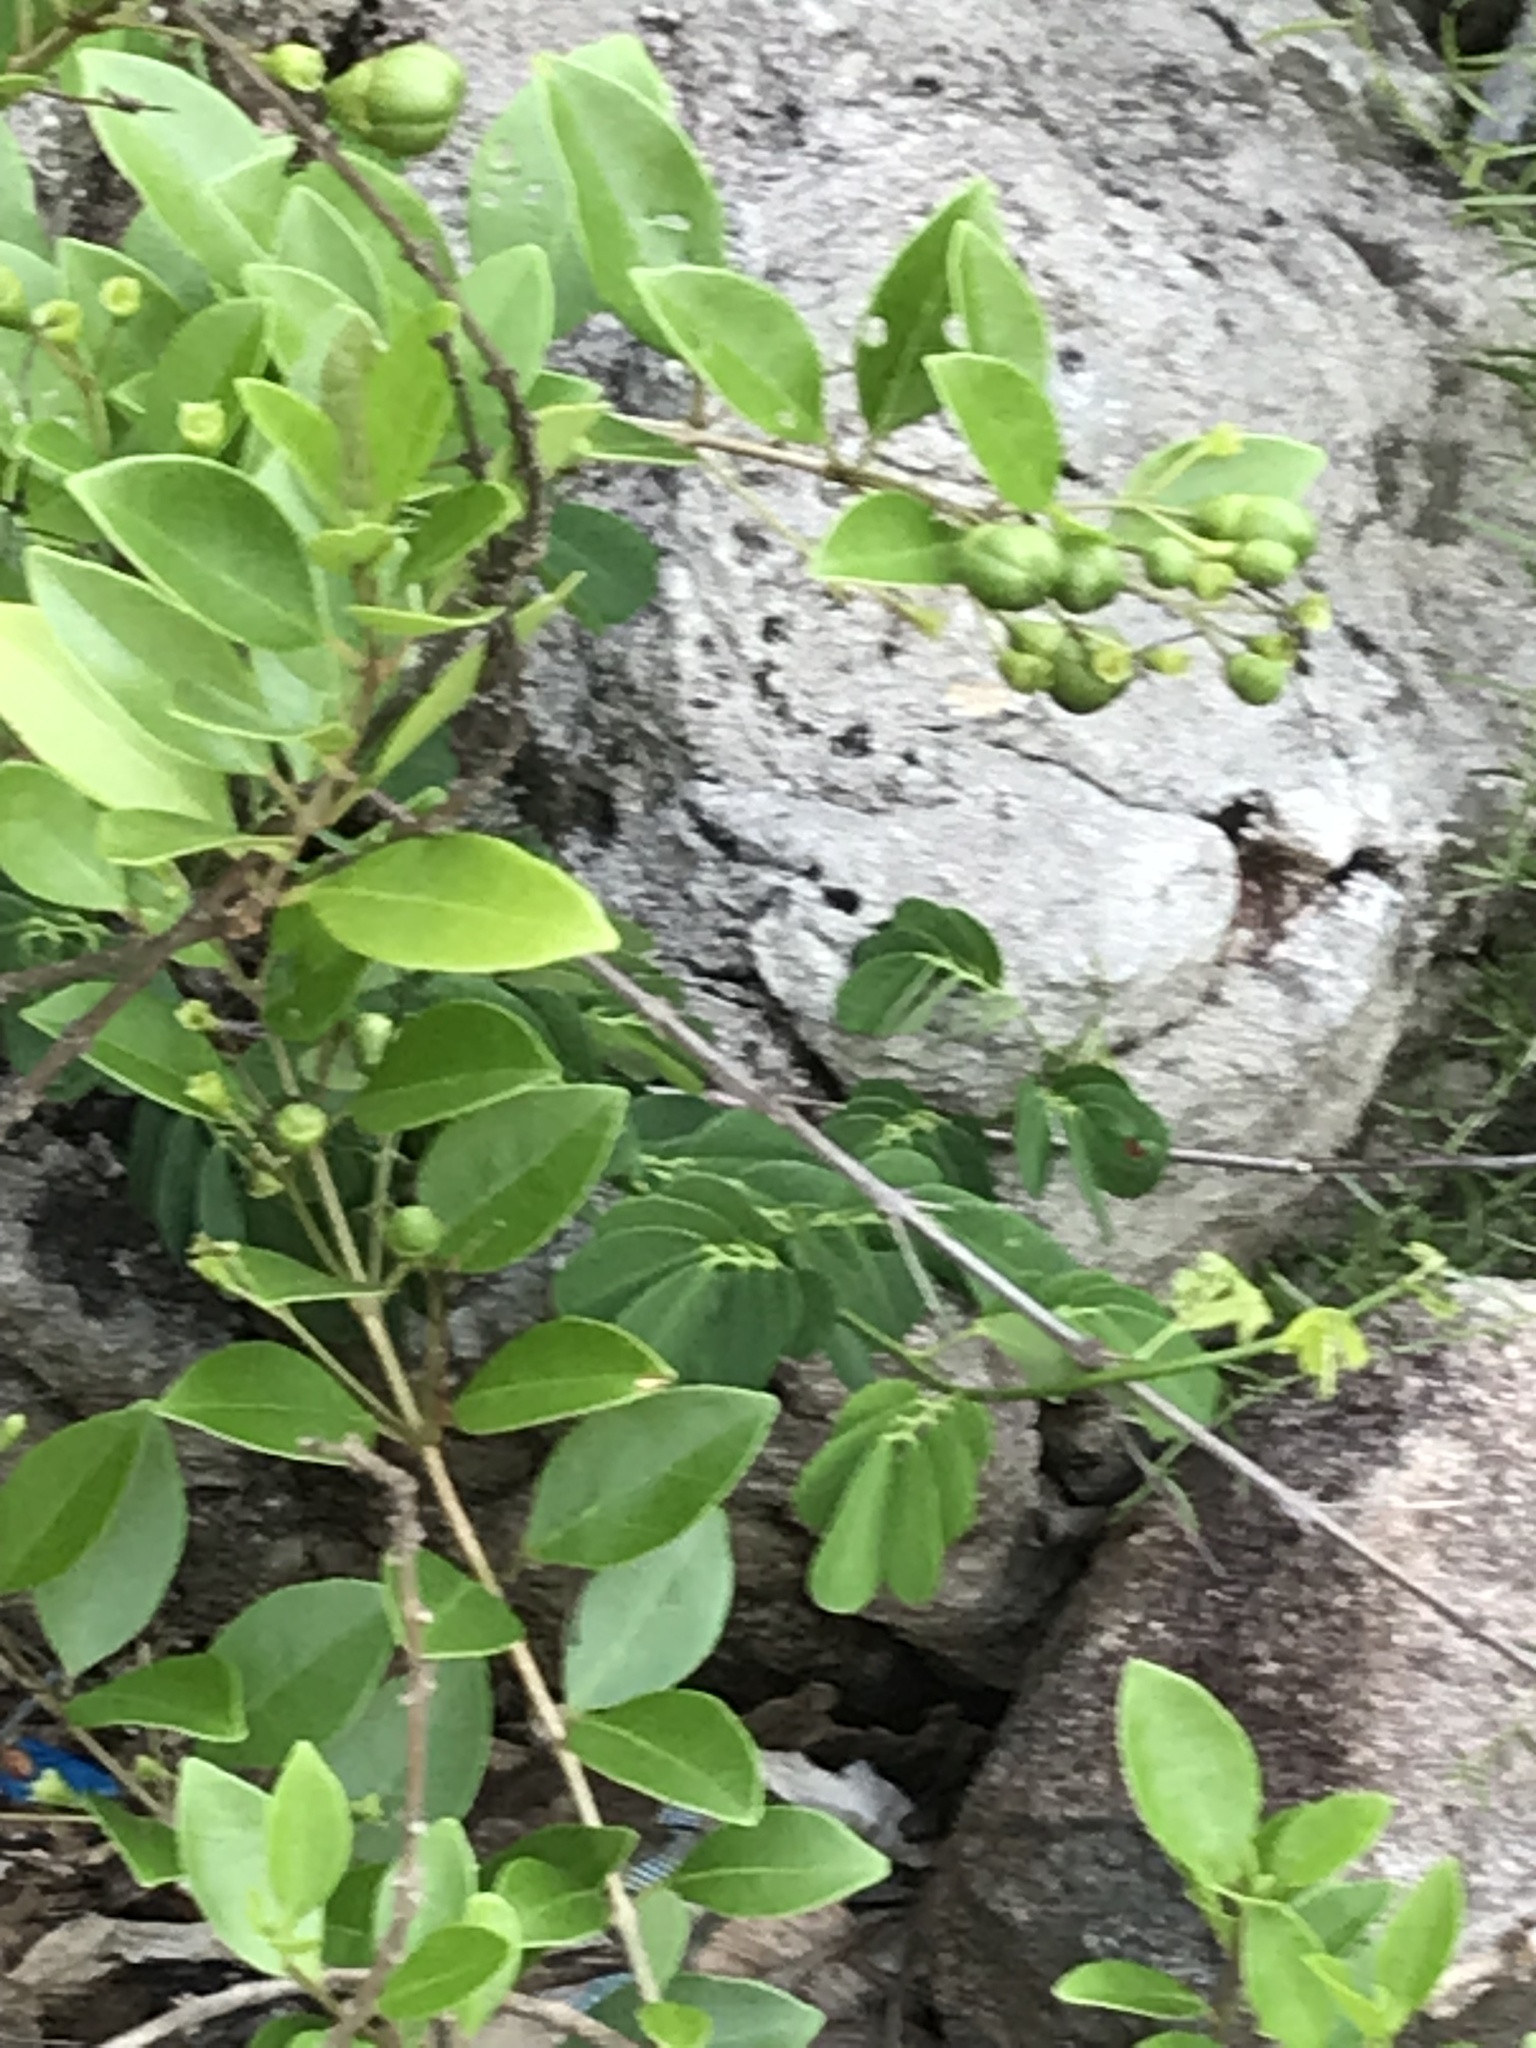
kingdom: Plantae
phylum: Tracheophyta
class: Magnoliopsida
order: Lamiales
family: Lamiaceae
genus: Volkameria
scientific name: Volkameria inermis
